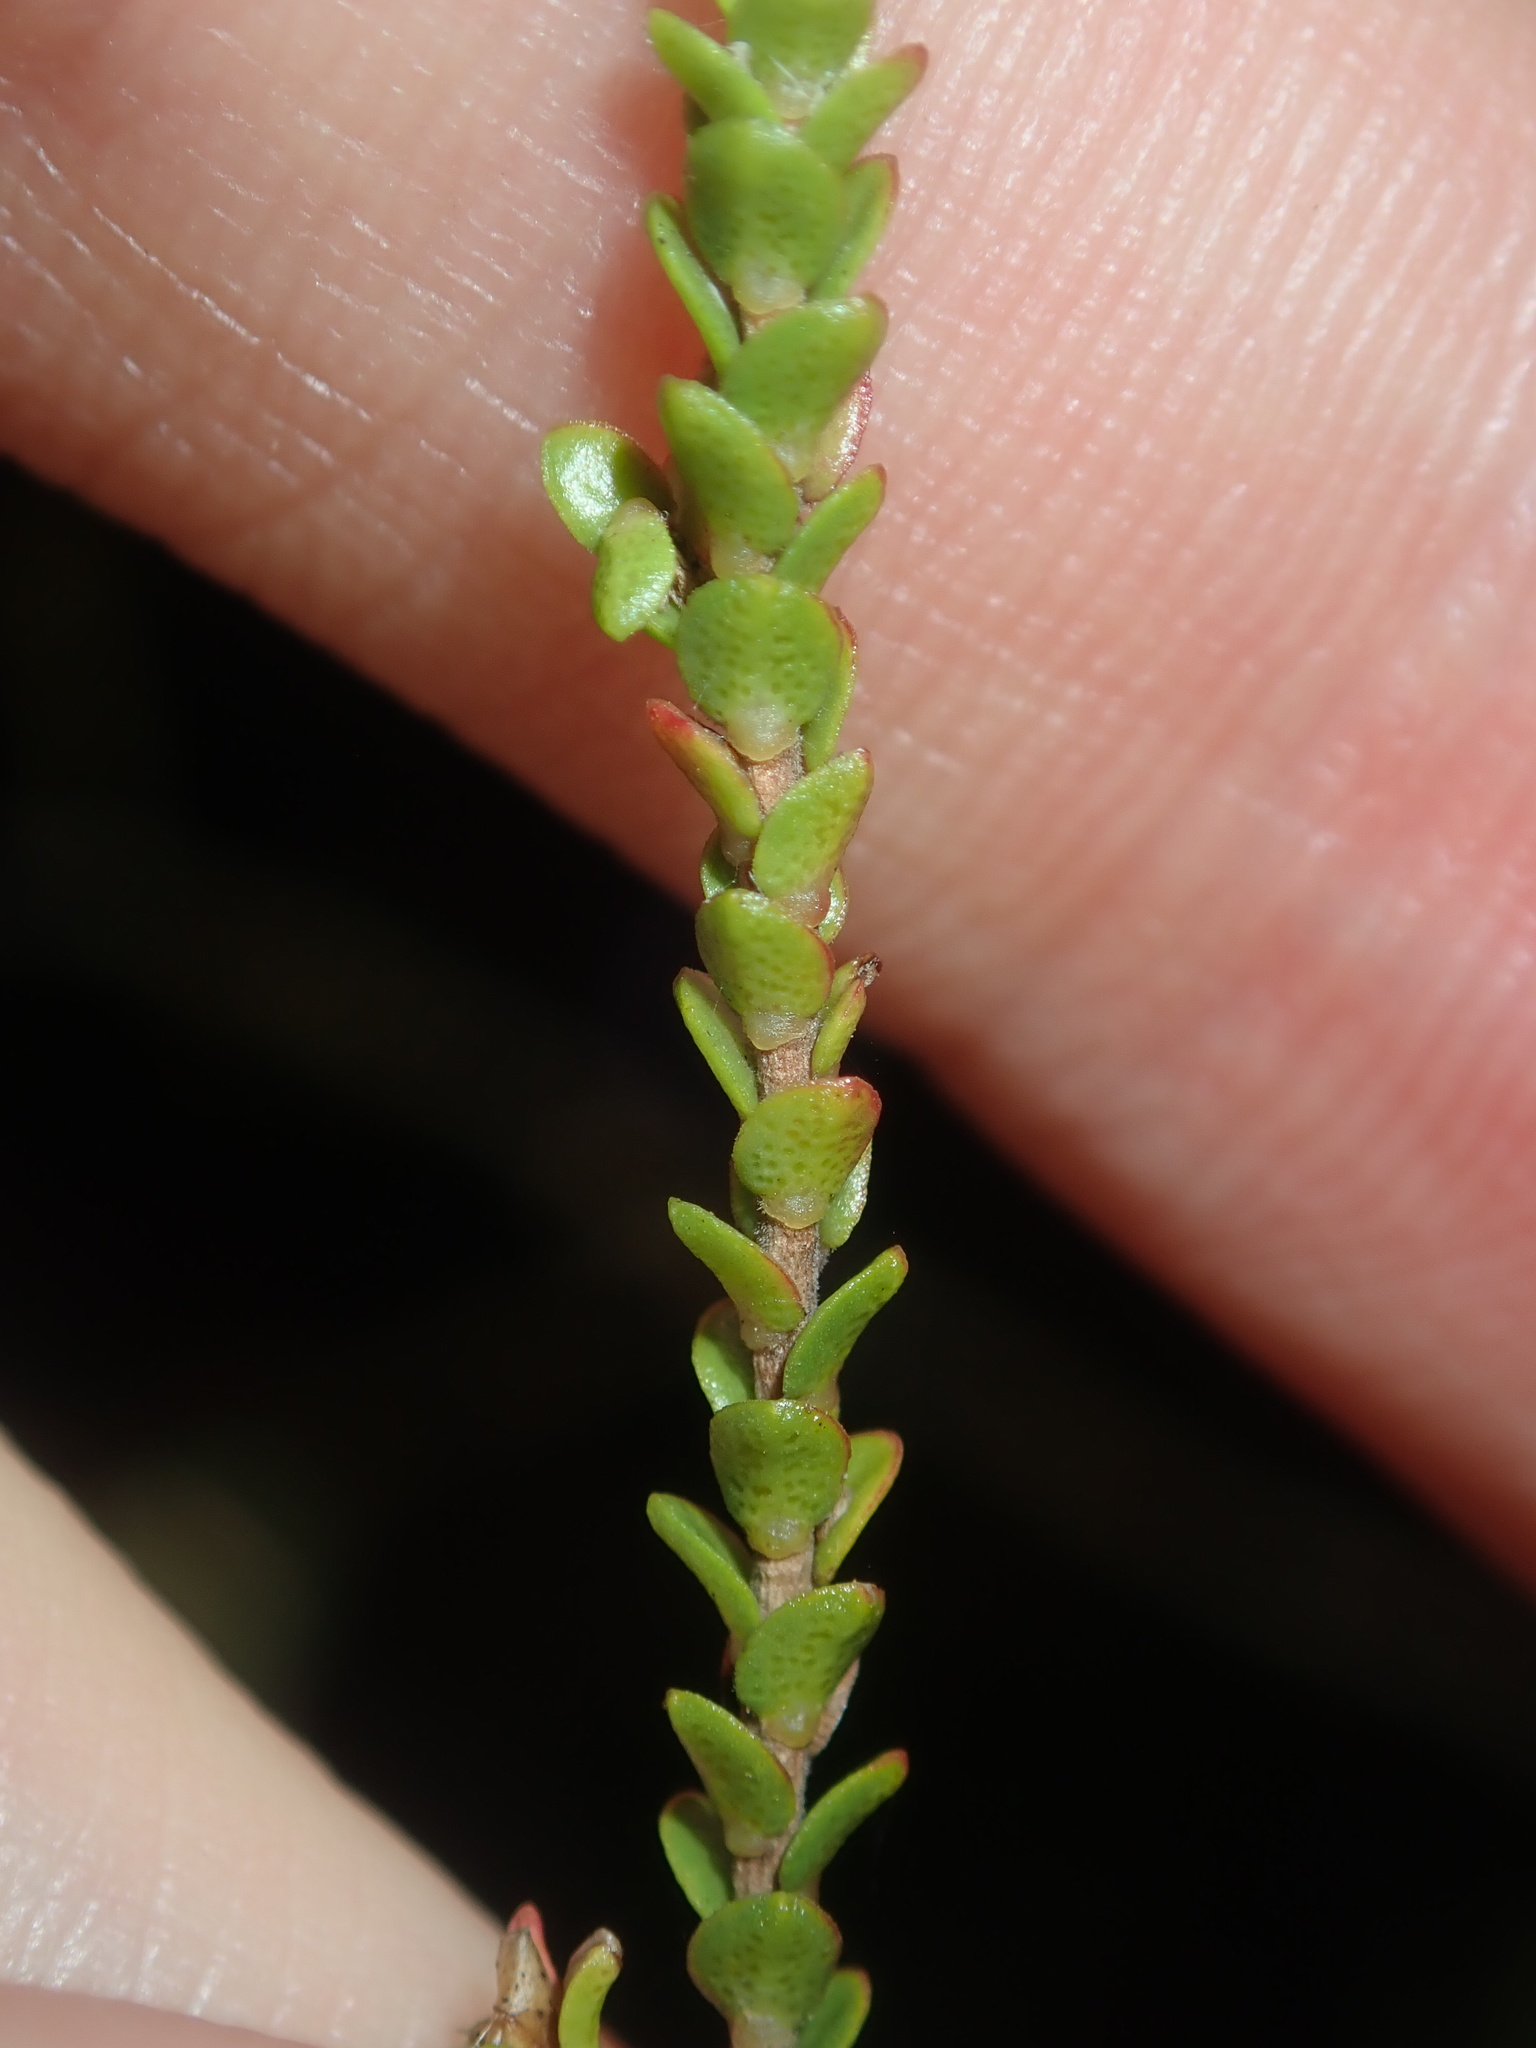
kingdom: Plantae
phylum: Tracheophyta
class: Magnoliopsida
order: Myrtales
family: Myrtaceae
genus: Leptospermum
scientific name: Leptospermum epacridoideum
